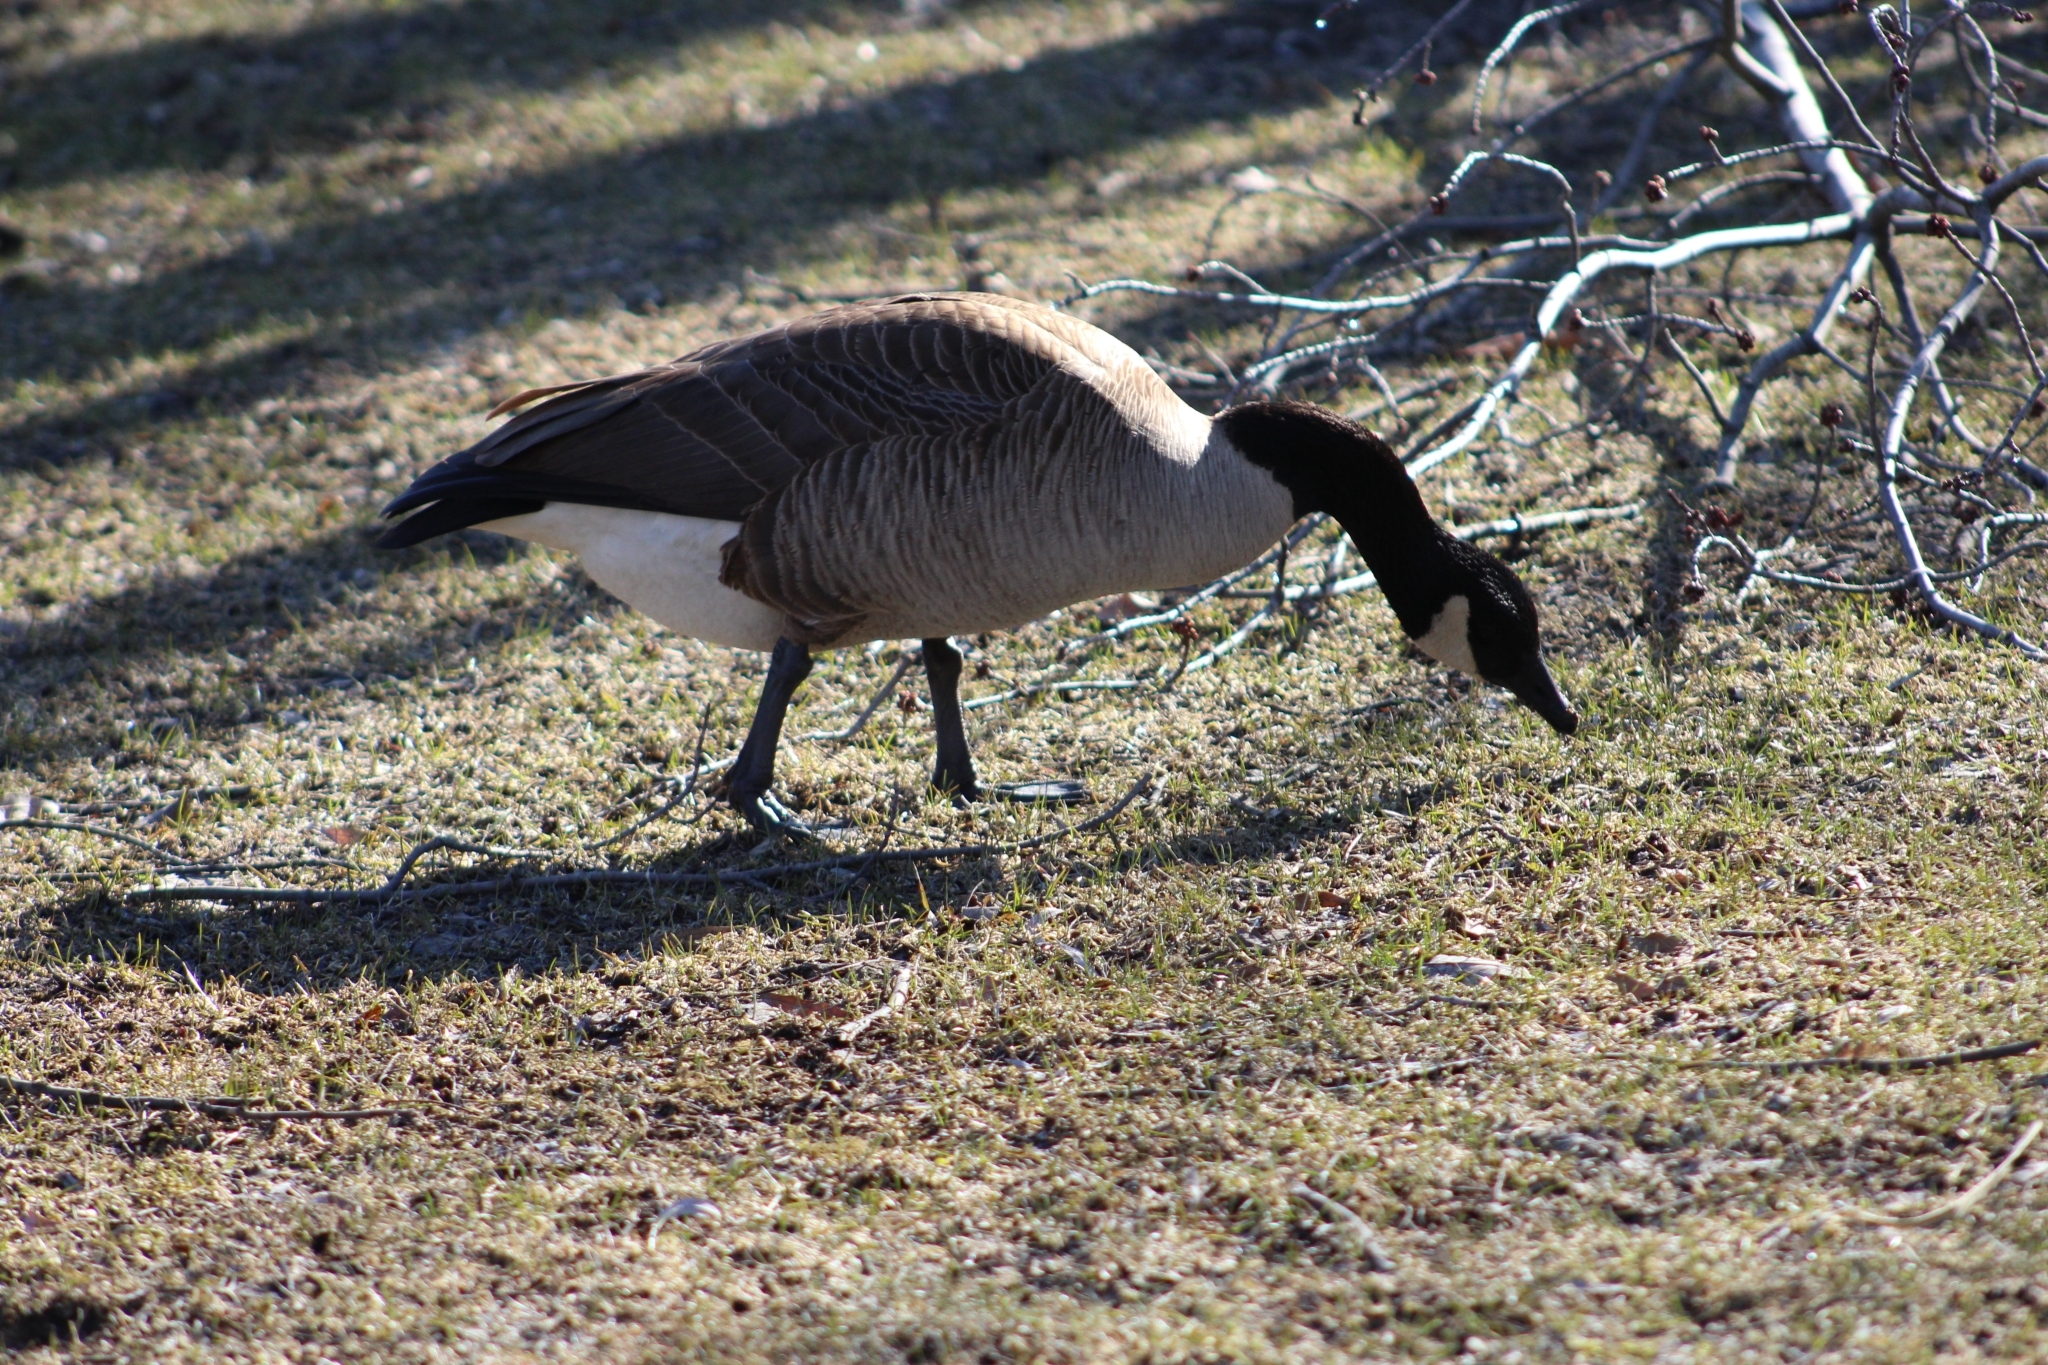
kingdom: Animalia
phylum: Chordata
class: Aves
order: Anseriformes
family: Anatidae
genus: Branta
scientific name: Branta canadensis
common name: Canada goose
